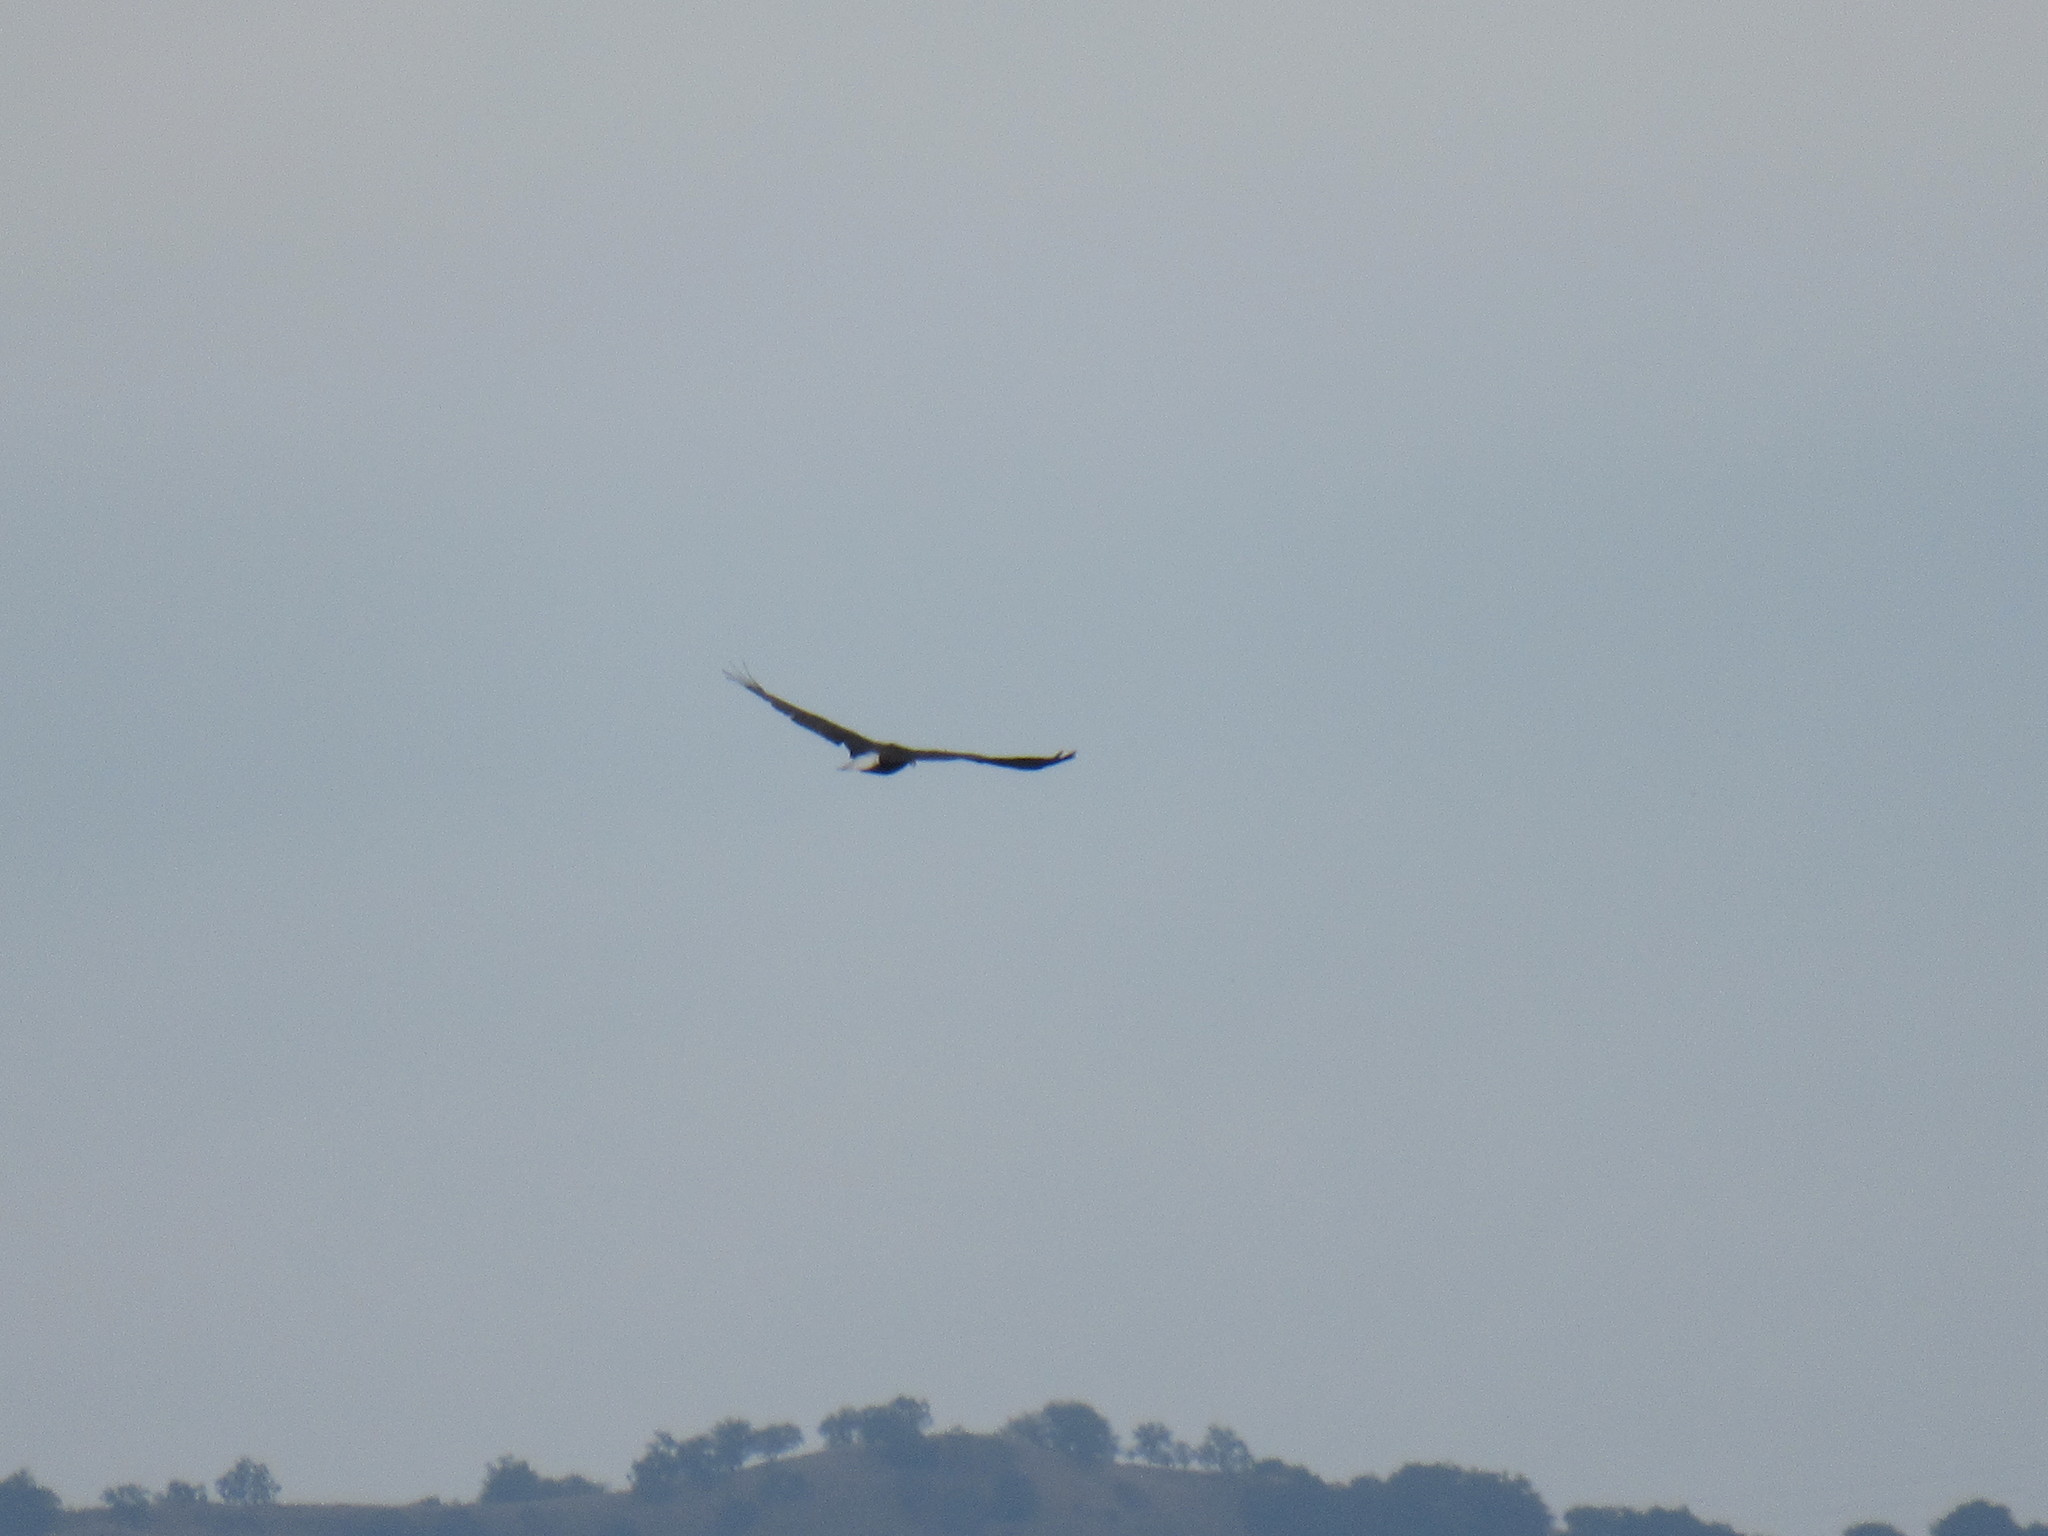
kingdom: Animalia
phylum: Chordata
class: Aves
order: Accipitriformes
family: Accipitridae
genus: Haliaeetus
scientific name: Haliaeetus leucocephalus
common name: Bald eagle
